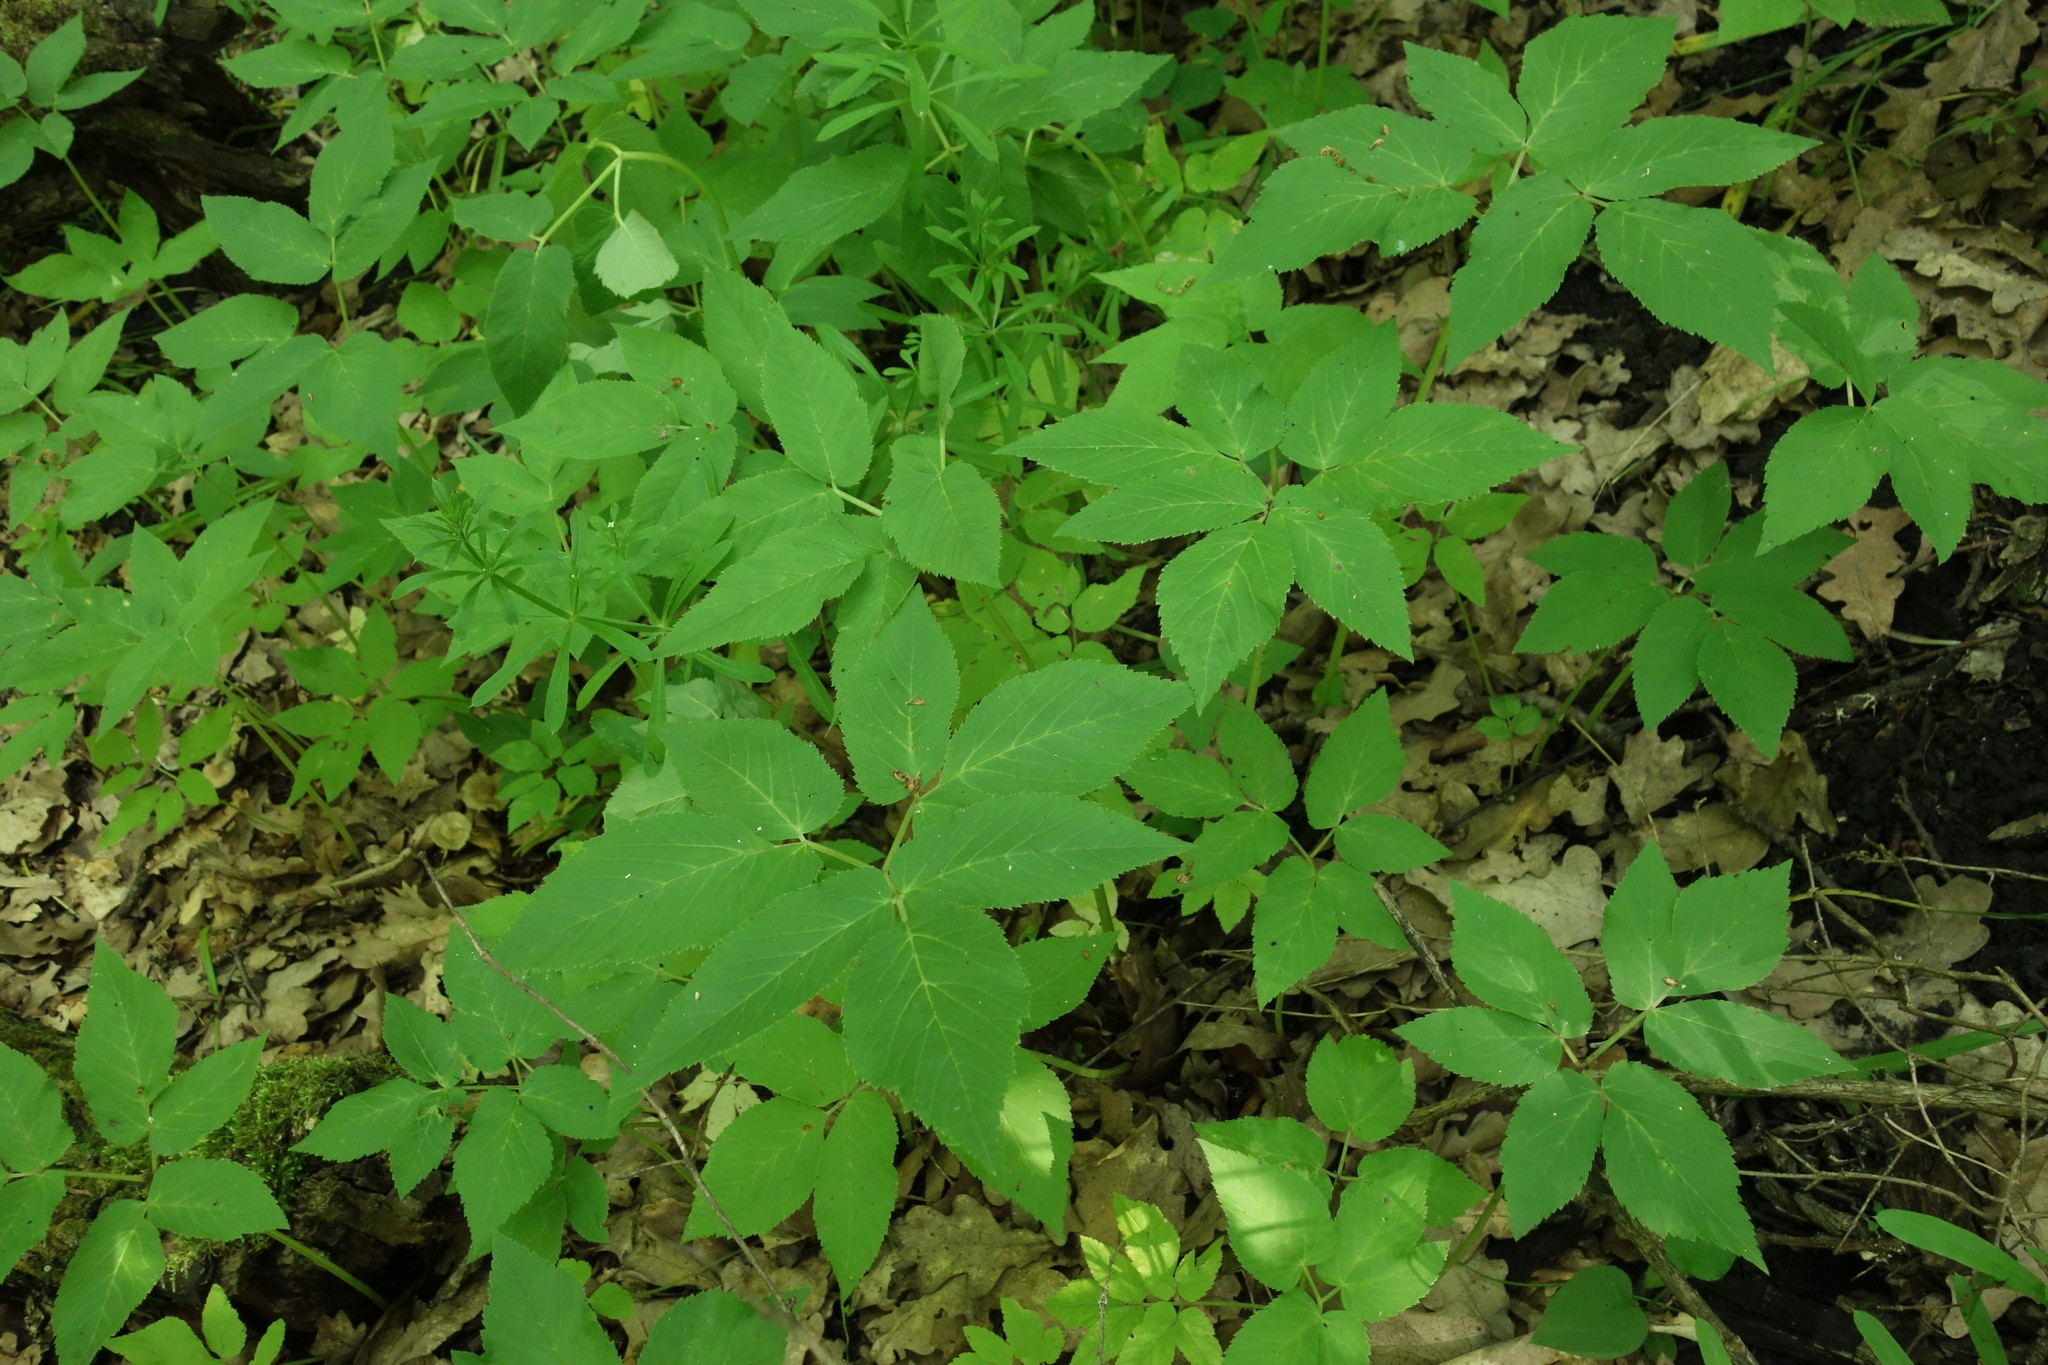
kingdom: Plantae
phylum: Tracheophyta
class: Magnoliopsida
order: Apiales
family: Apiaceae
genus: Aegopodium
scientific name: Aegopodium podagraria
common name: Ground-elder
